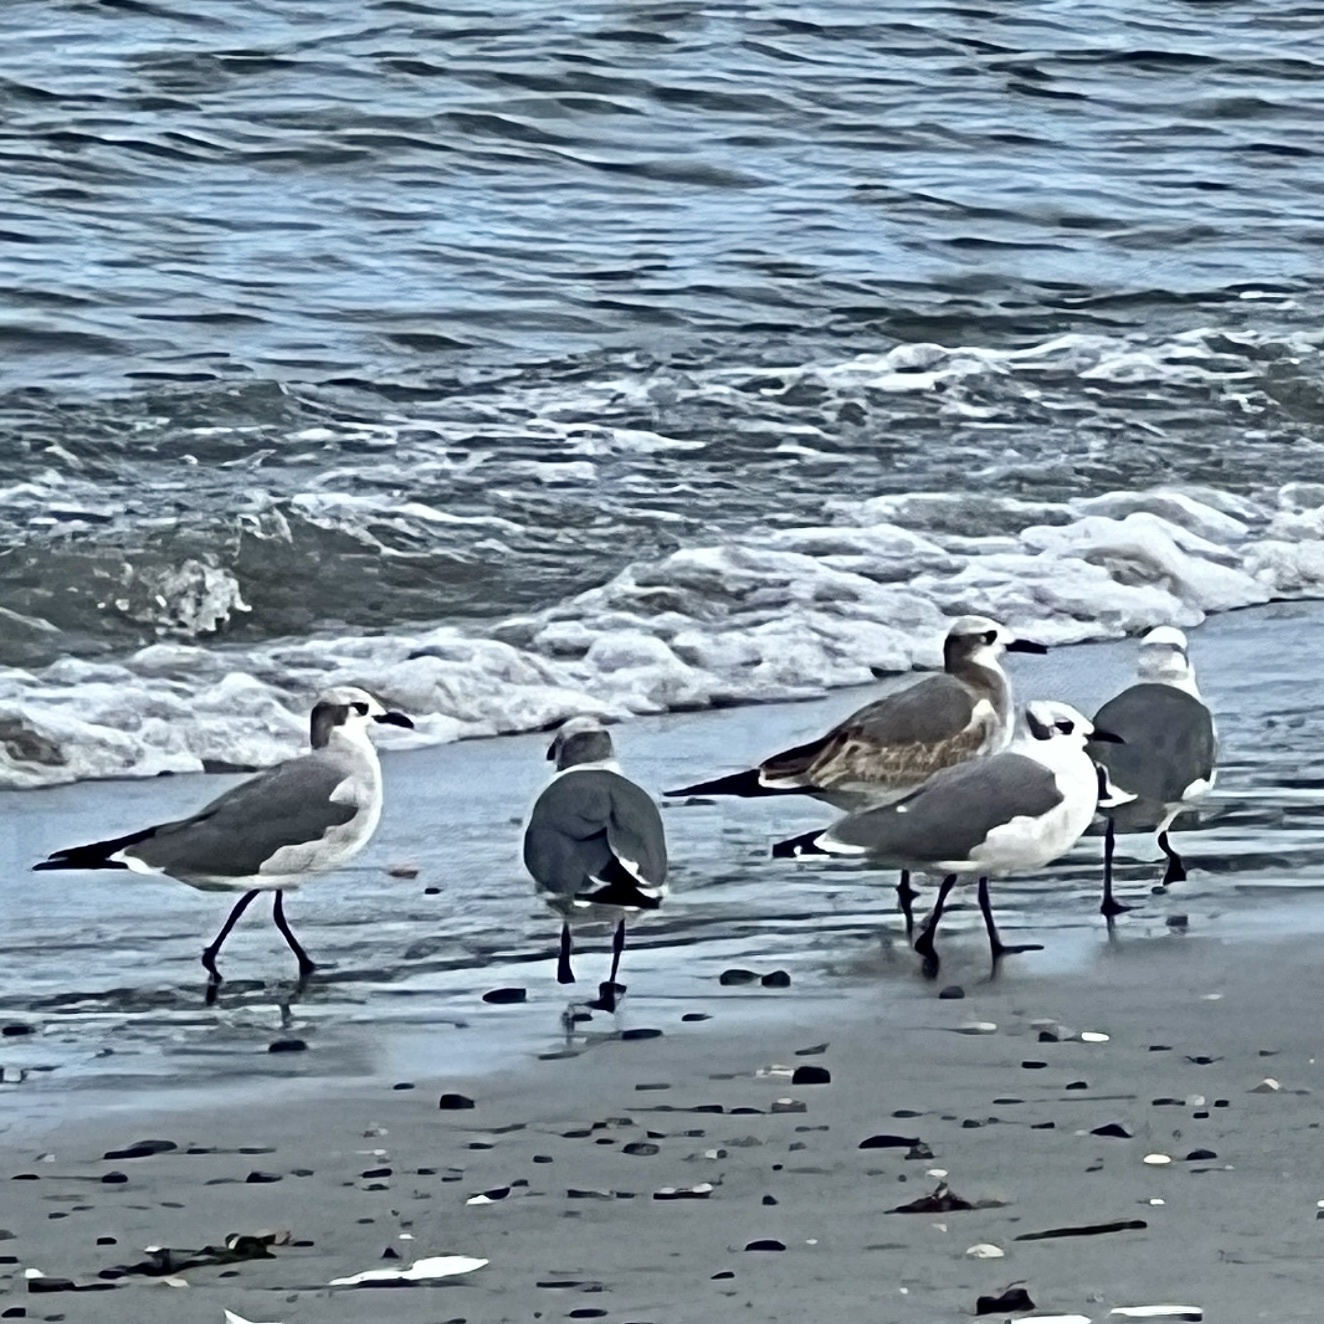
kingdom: Animalia
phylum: Chordata
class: Aves
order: Charadriiformes
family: Laridae
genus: Leucophaeus
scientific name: Leucophaeus atricilla
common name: Laughing gull
